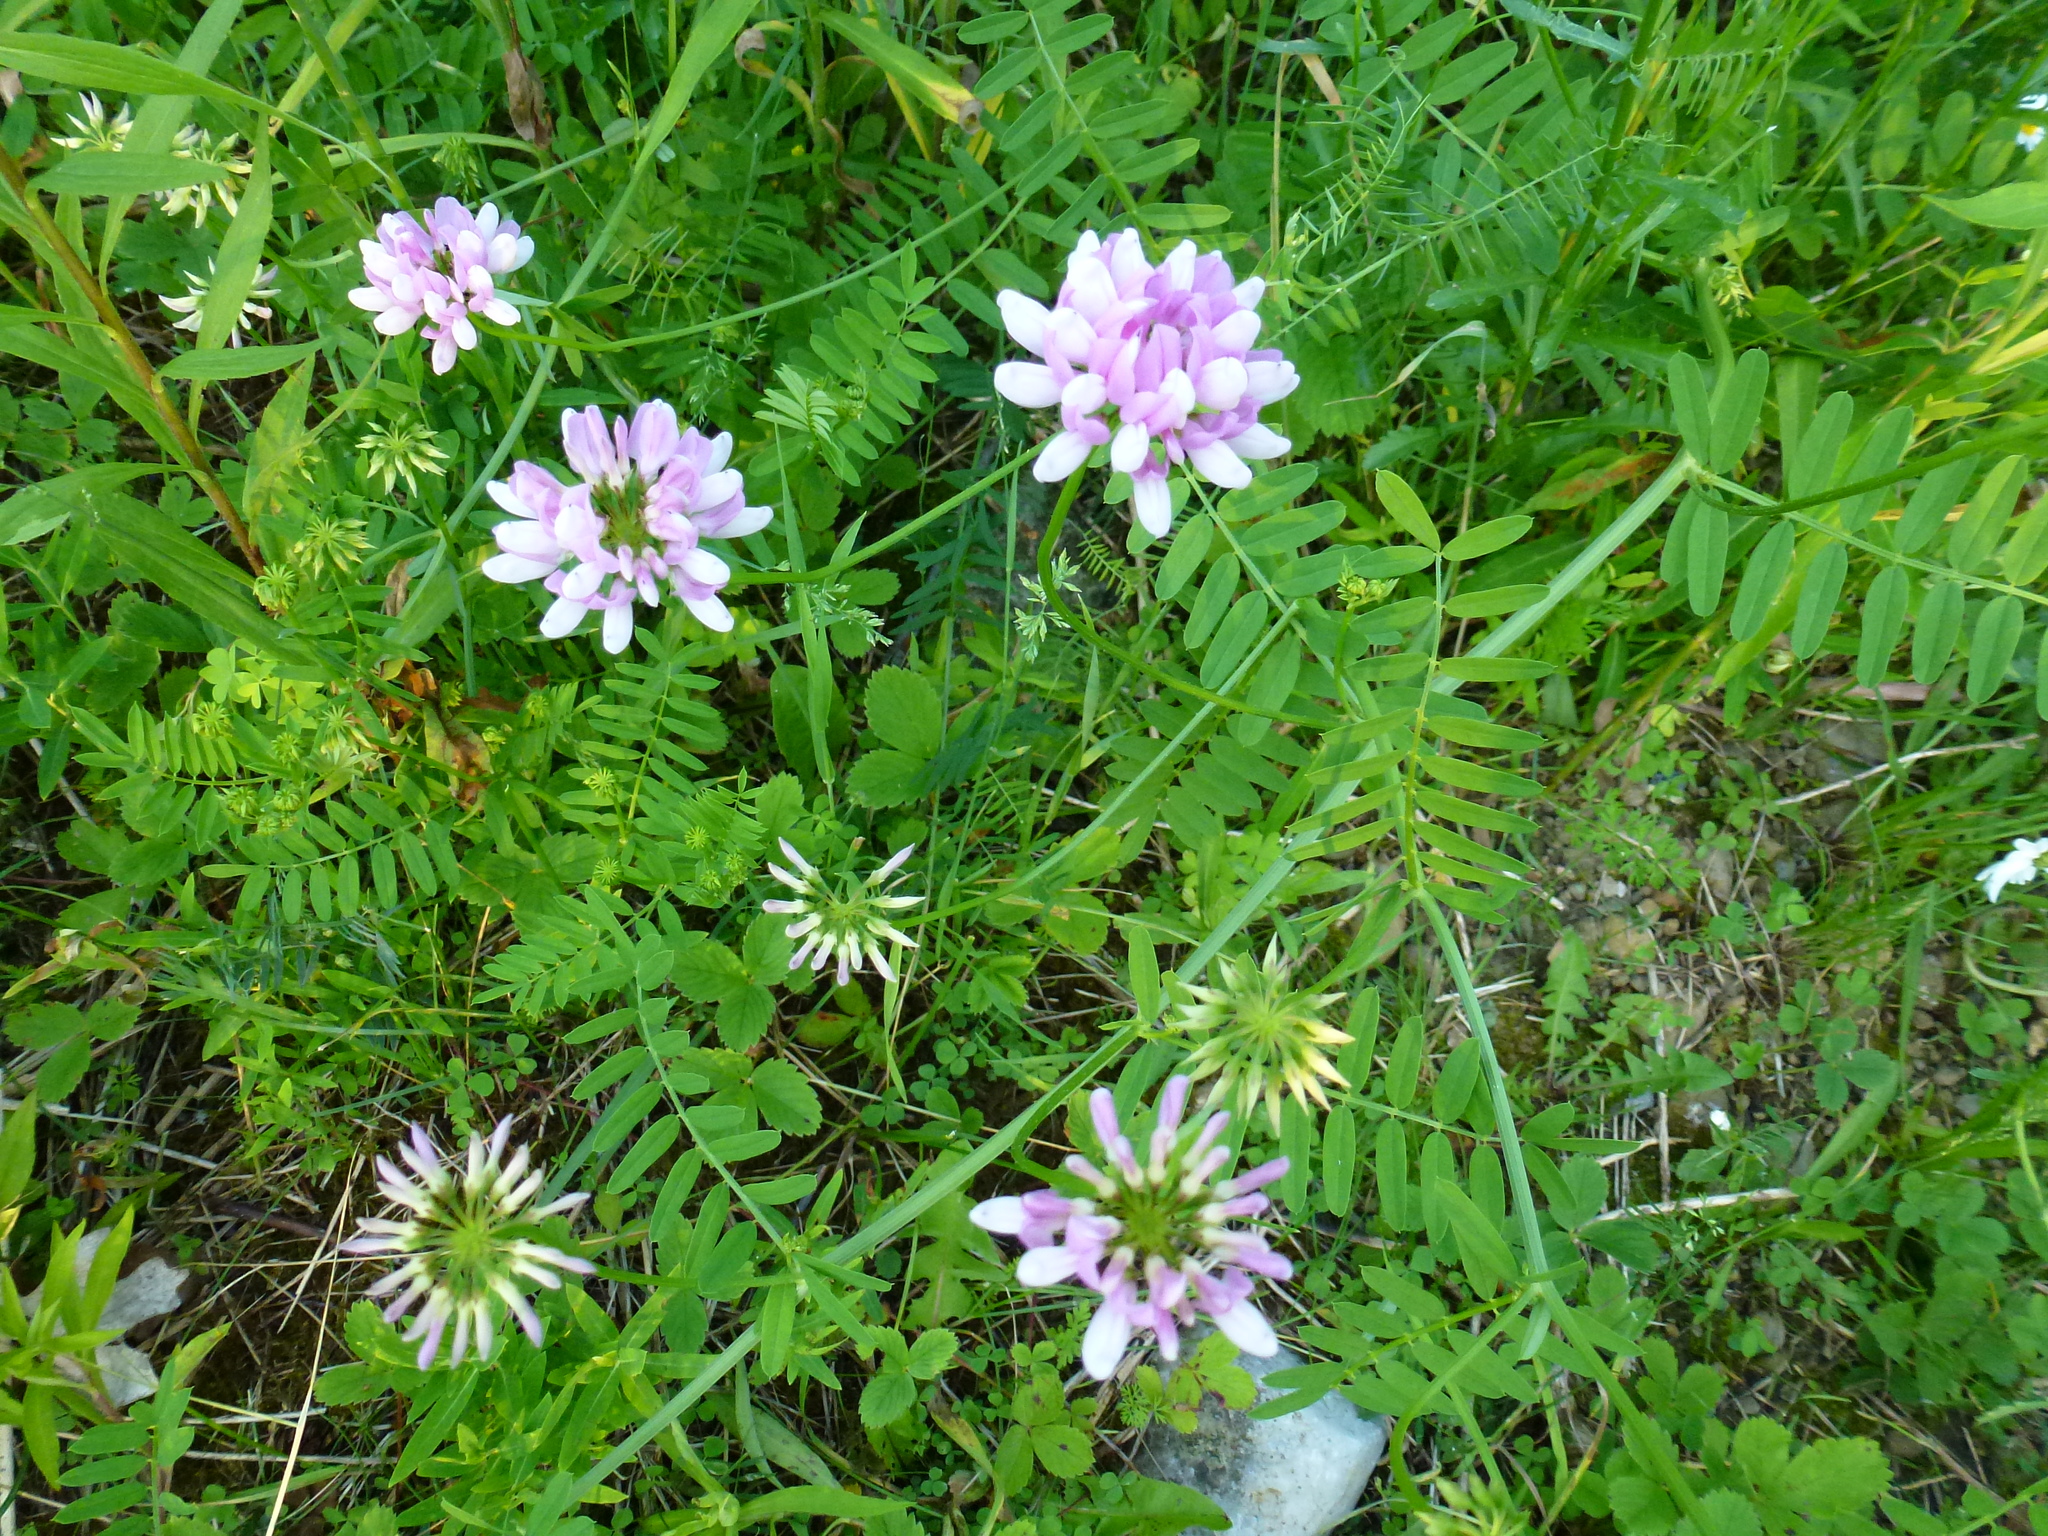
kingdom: Plantae
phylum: Tracheophyta
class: Magnoliopsida
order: Fabales
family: Fabaceae
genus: Coronilla
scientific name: Coronilla varia
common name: Crownvetch
